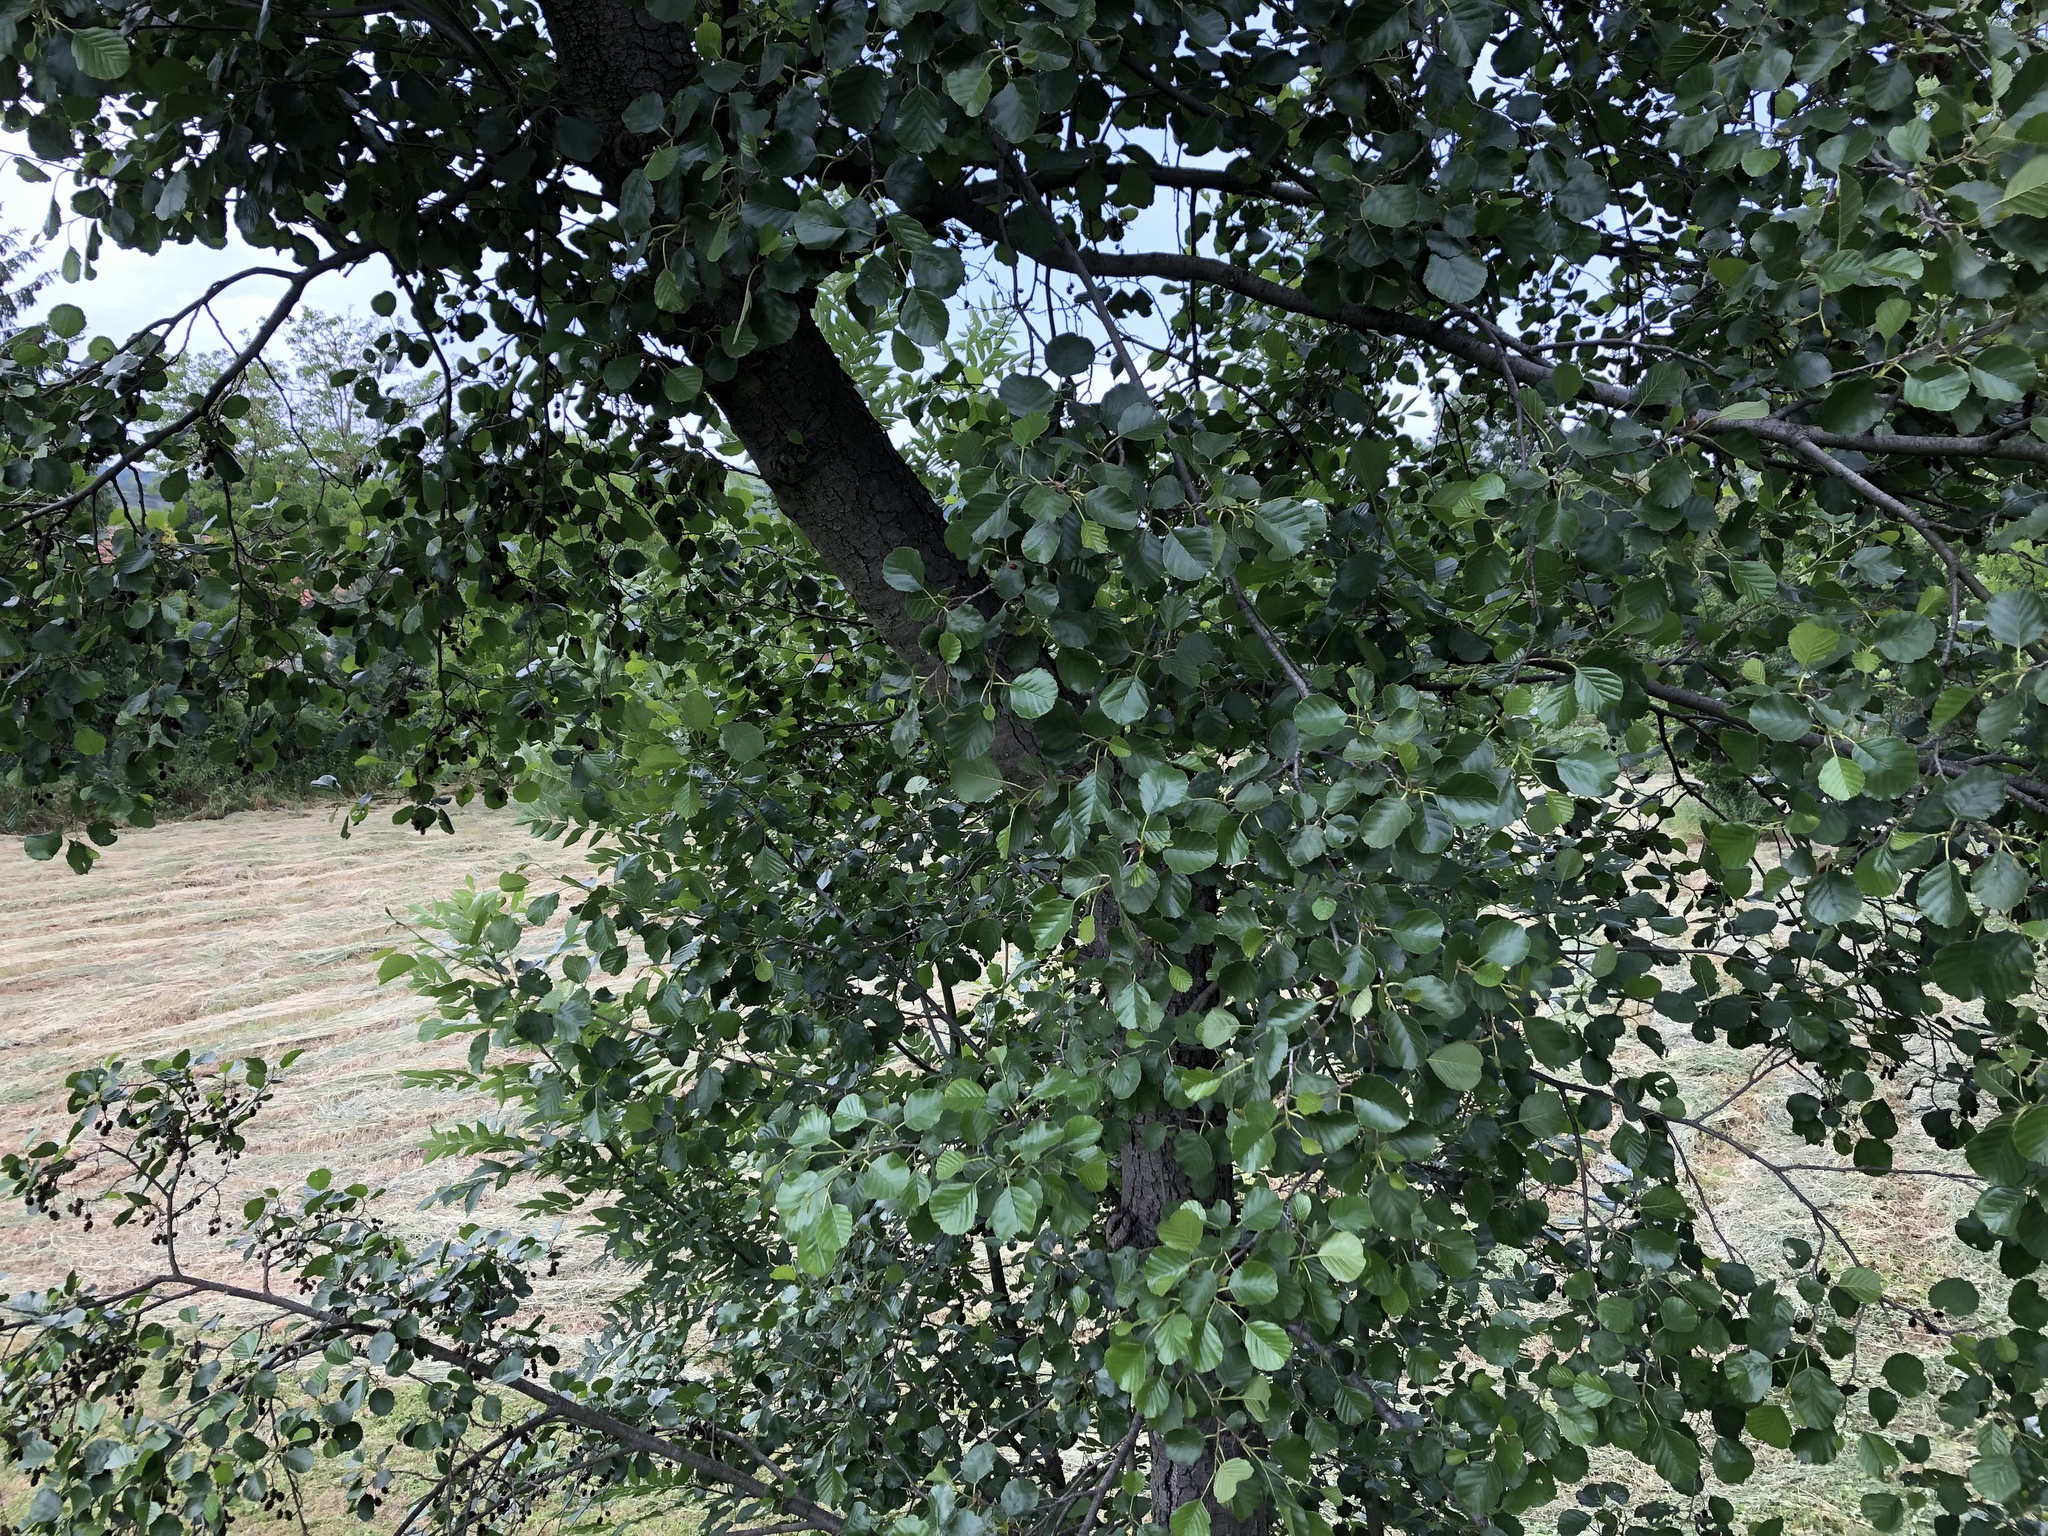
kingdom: Plantae
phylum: Tracheophyta
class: Magnoliopsida
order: Fagales
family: Betulaceae
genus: Alnus
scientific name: Alnus glutinosa
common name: Black alder
